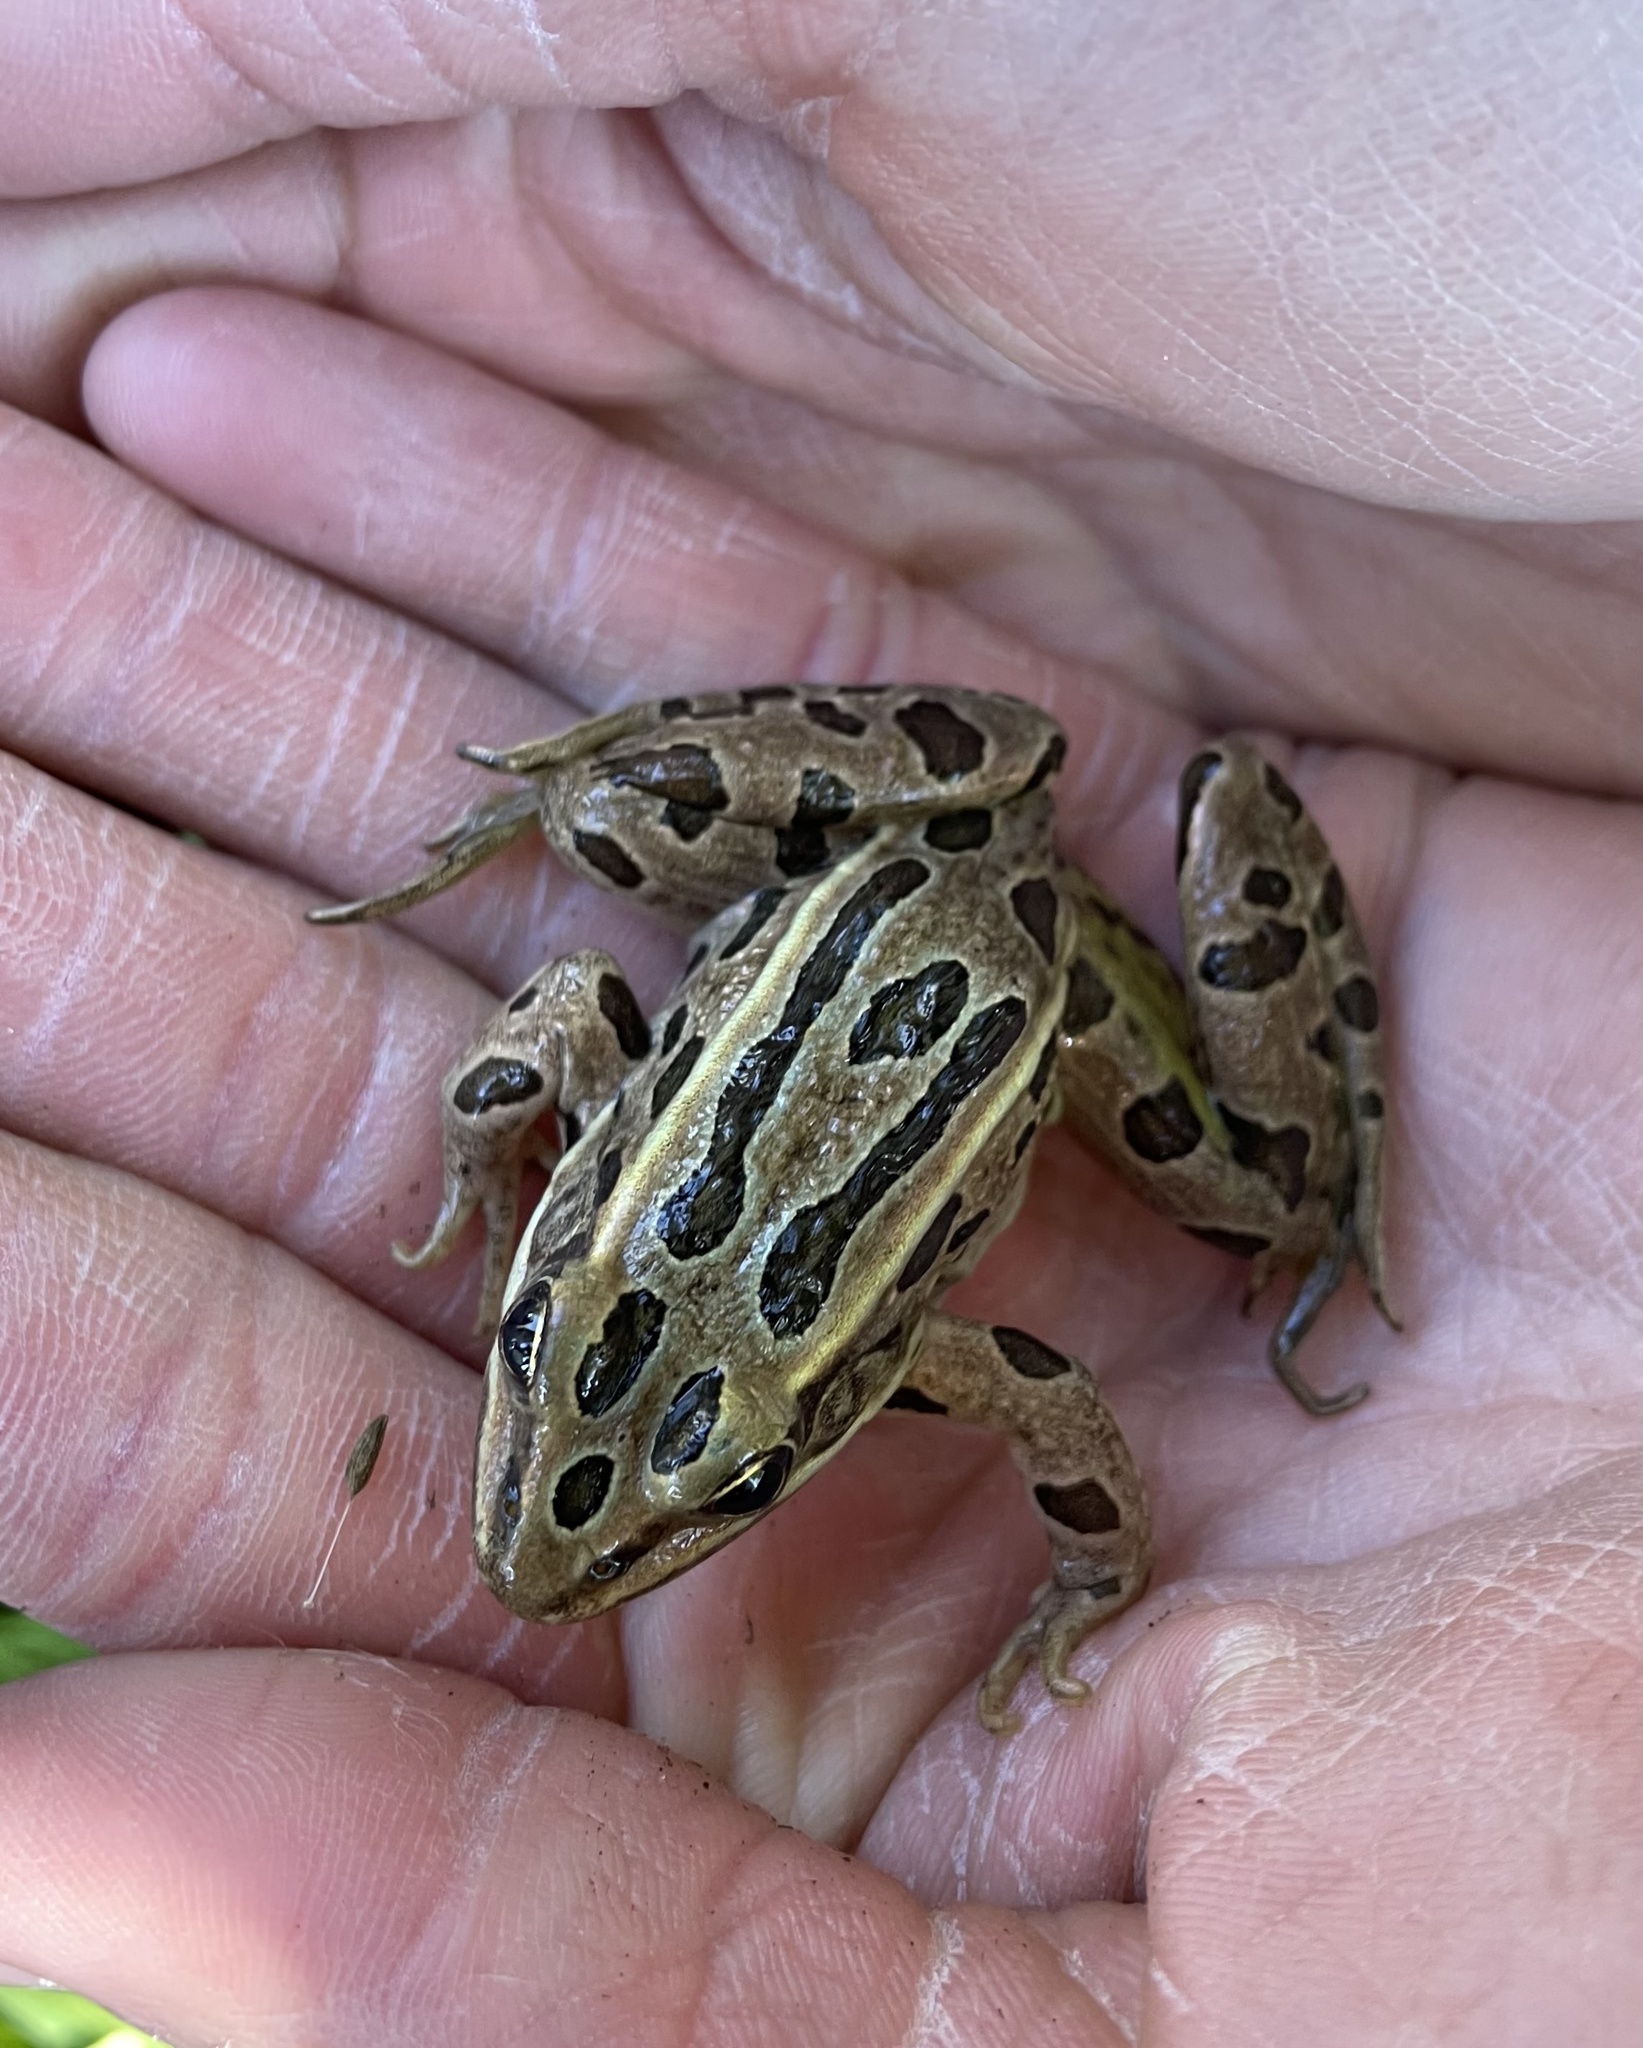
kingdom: Animalia
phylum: Chordata
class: Amphibia
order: Anura
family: Ranidae
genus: Lithobates
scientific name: Lithobates pipiens
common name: Northern leopard frog
